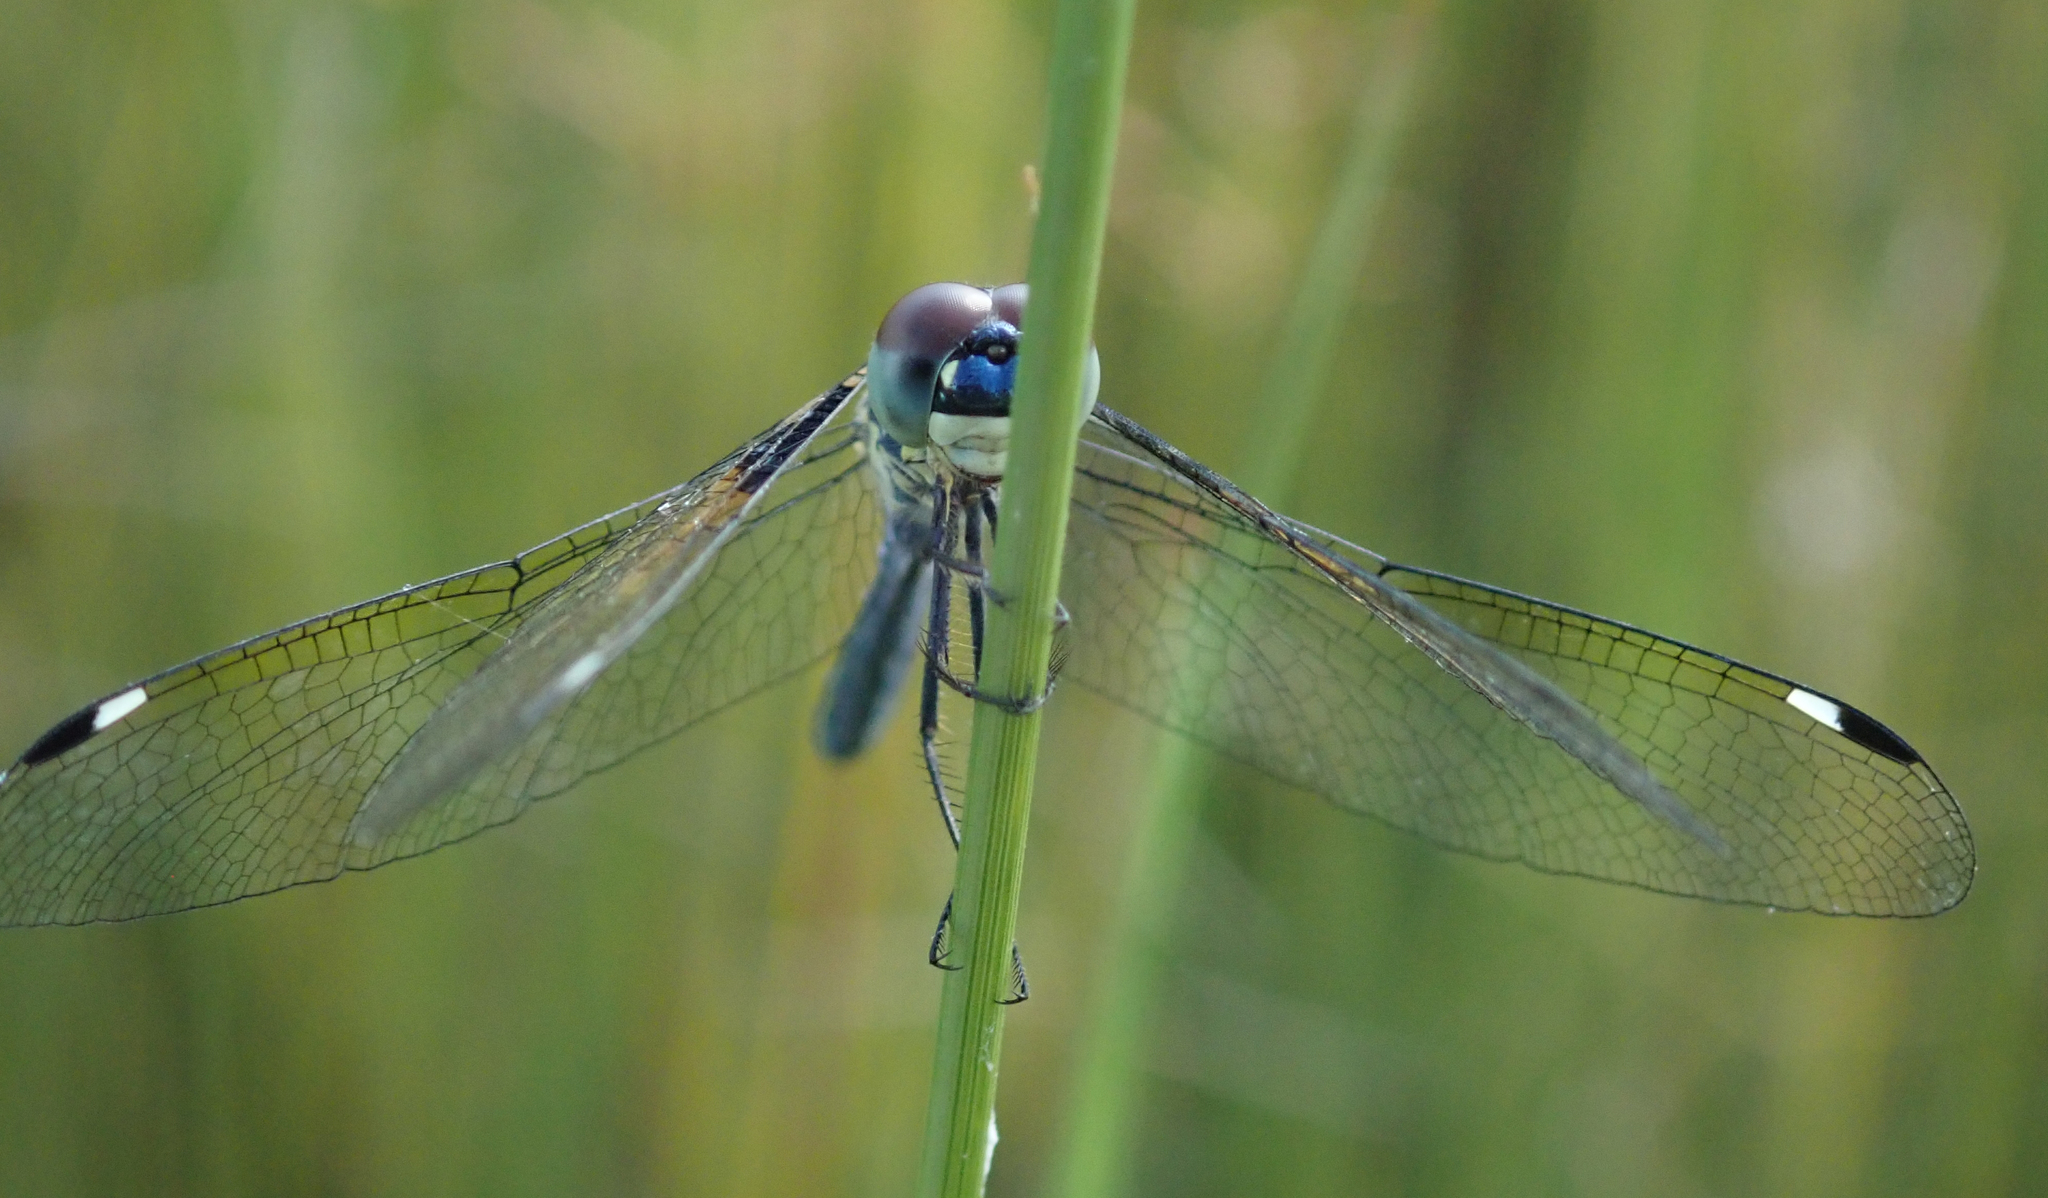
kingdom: Animalia
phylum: Arthropoda
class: Insecta
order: Odonata
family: Libellulidae
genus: Hemistigma
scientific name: Hemistigma albipunctum
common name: African pied-spot
